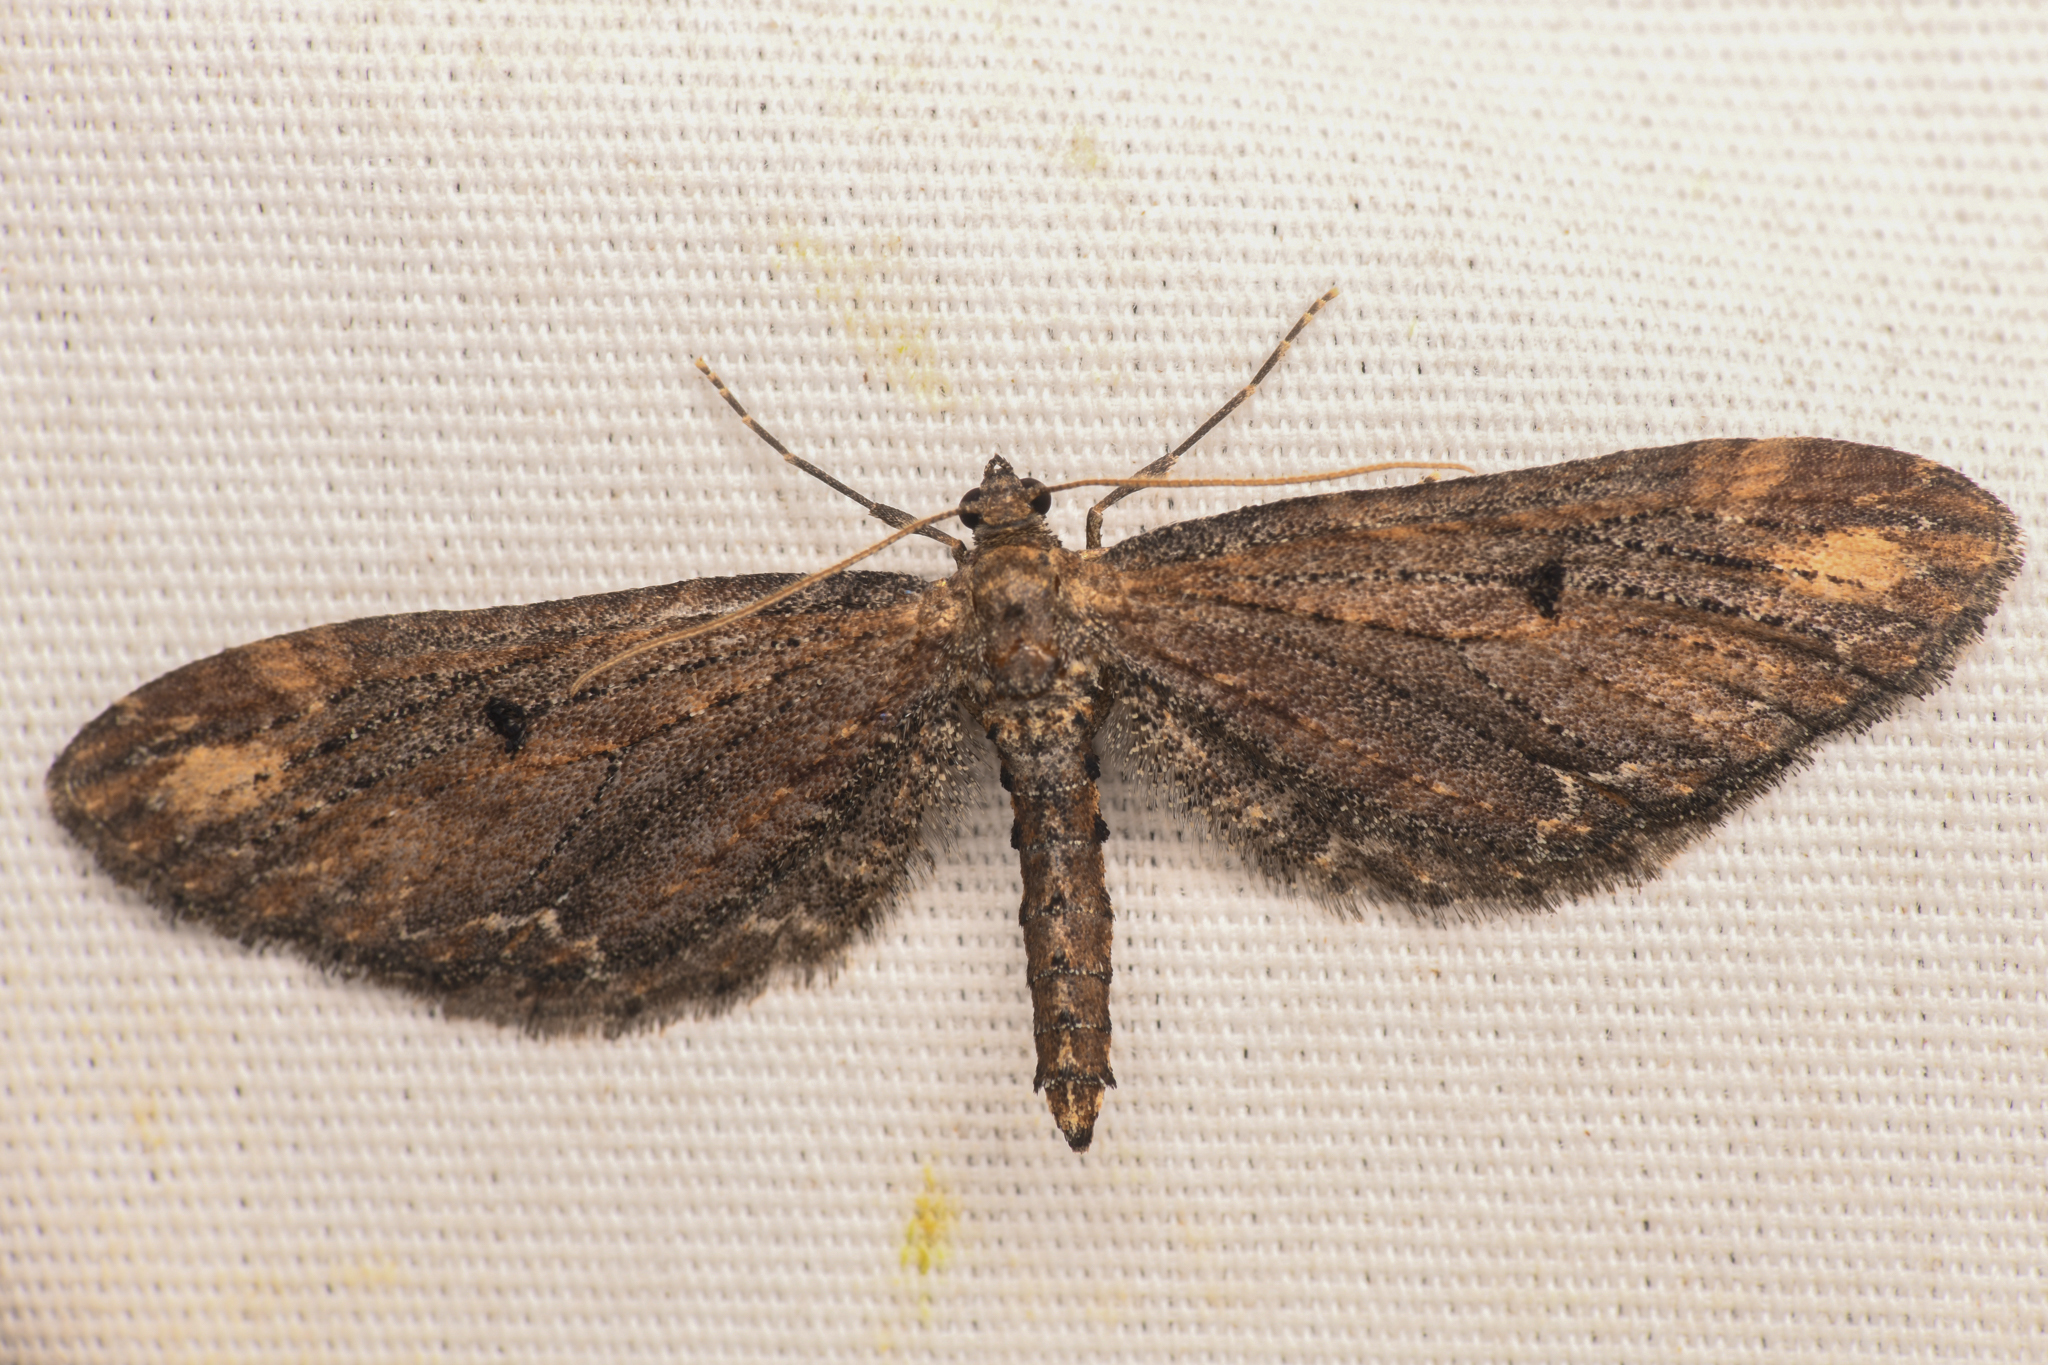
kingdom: Animalia
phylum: Arthropoda
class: Insecta
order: Lepidoptera
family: Geometridae
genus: Eupithecia
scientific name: Eupithecia subapicata
